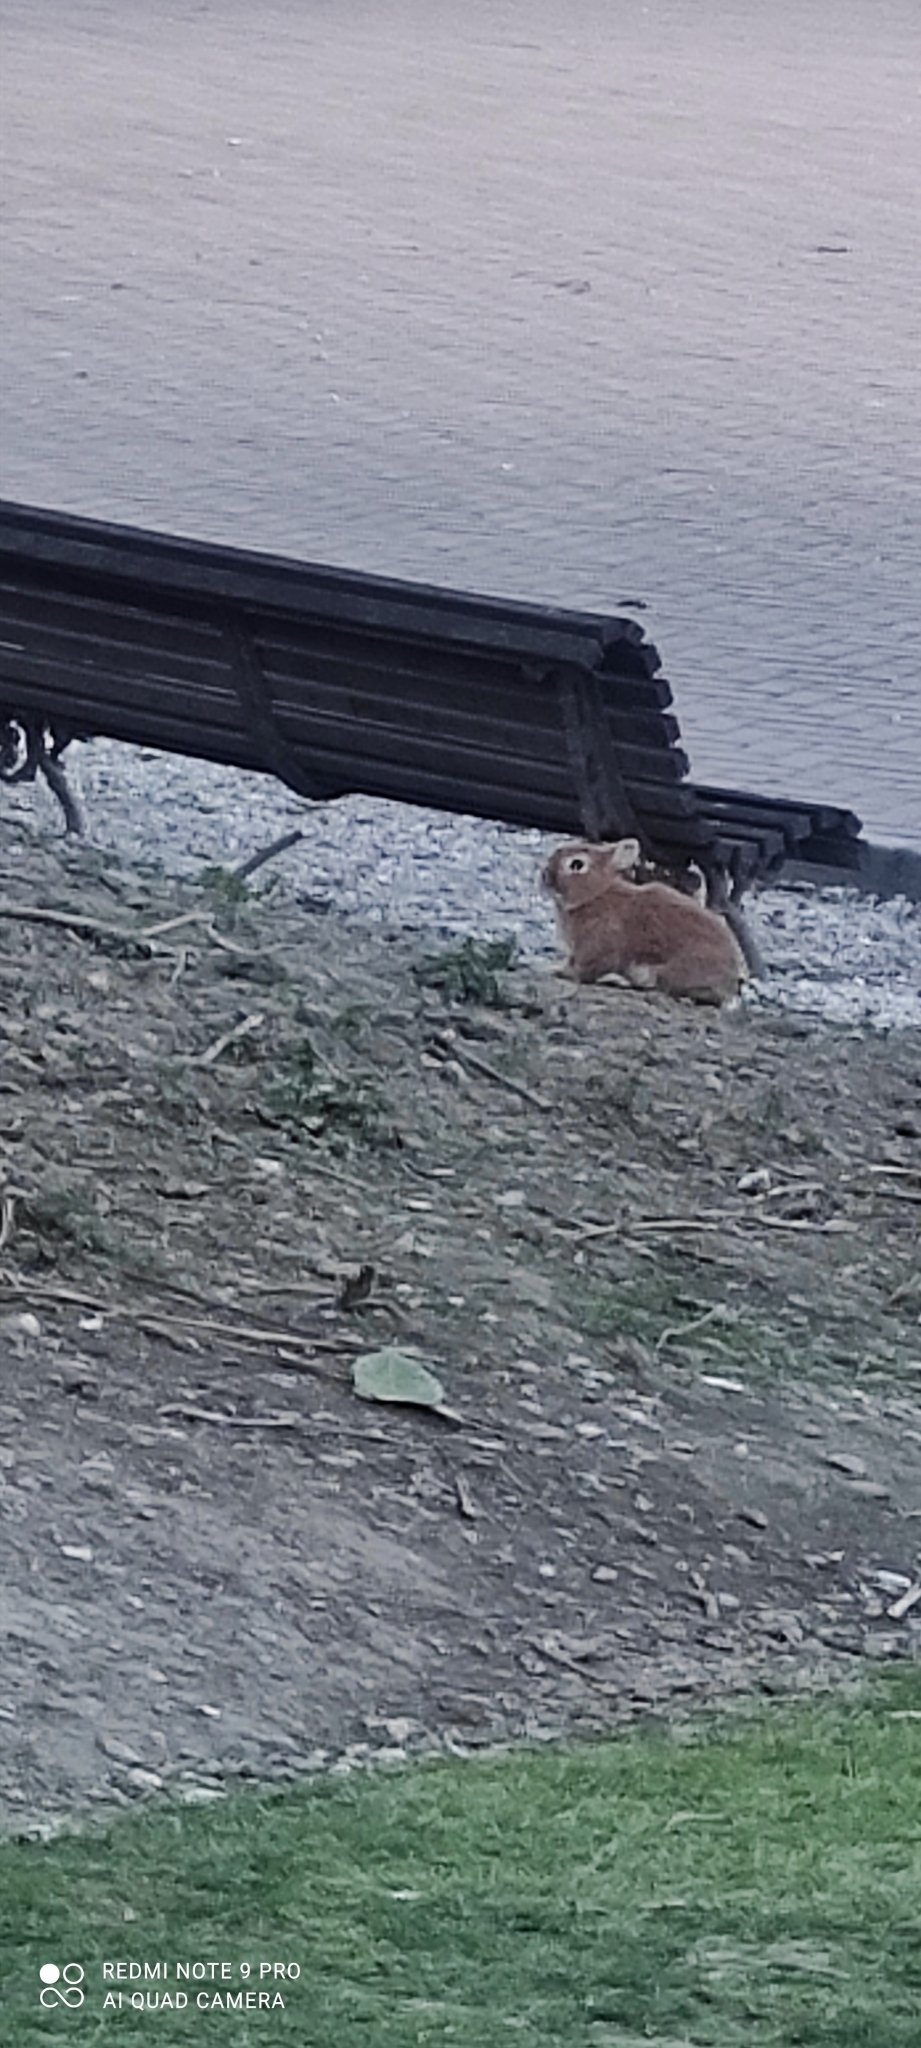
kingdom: Animalia
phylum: Chordata
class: Mammalia
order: Lagomorpha
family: Leporidae
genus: Oryctolagus
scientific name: Oryctolagus cuniculus
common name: European rabbit
